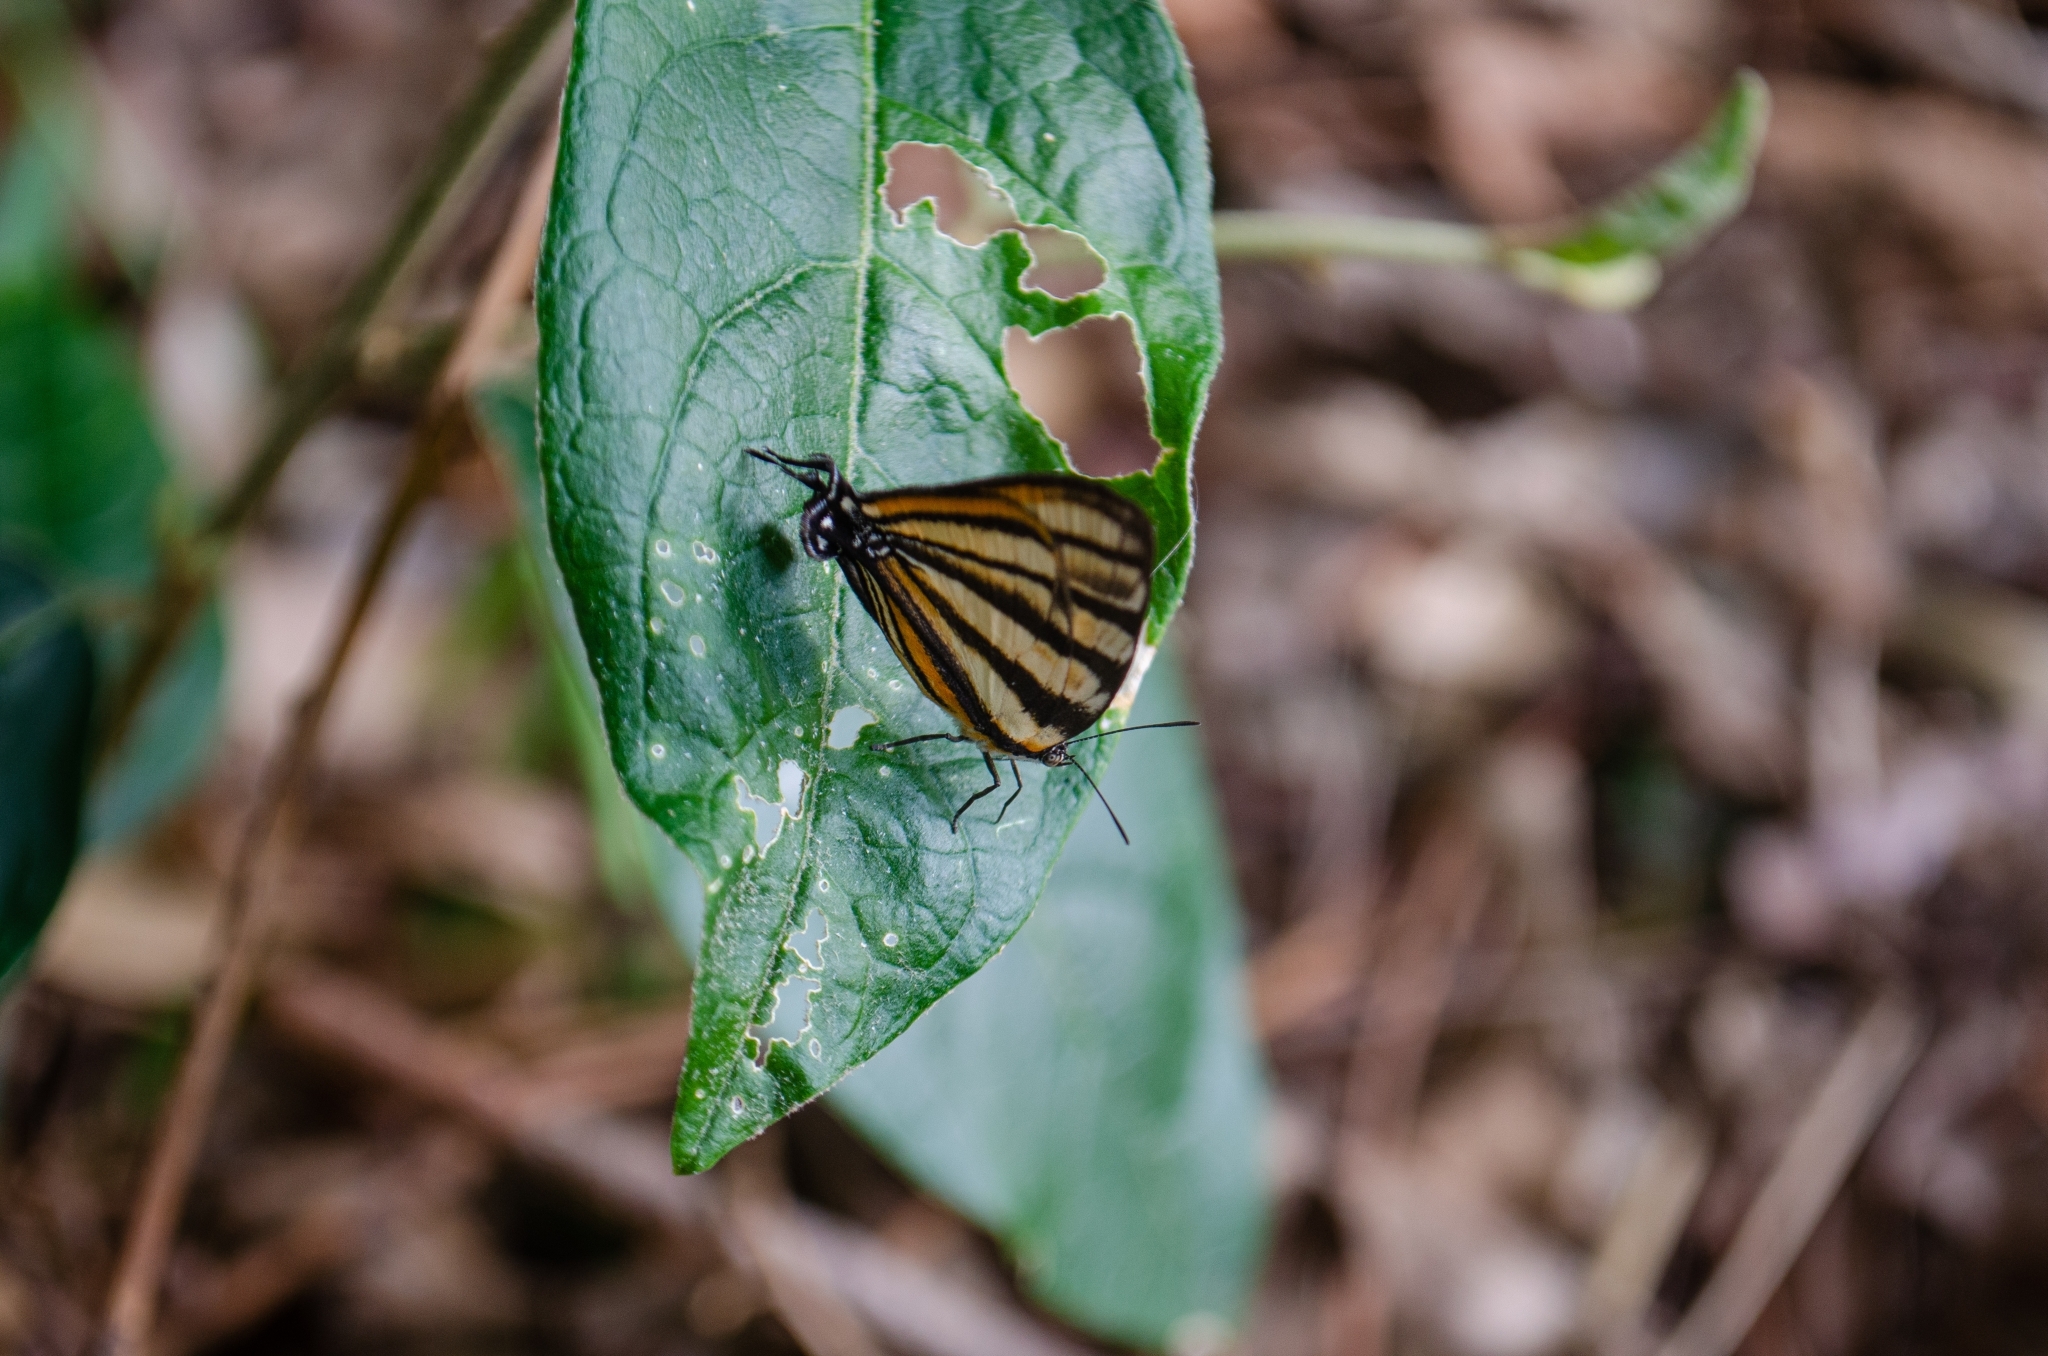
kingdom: Animalia
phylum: Arthropoda
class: Insecta
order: Lepidoptera
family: Lycaenidae
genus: Arawacus
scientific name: Arawacus separata
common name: Separated stripestreak
